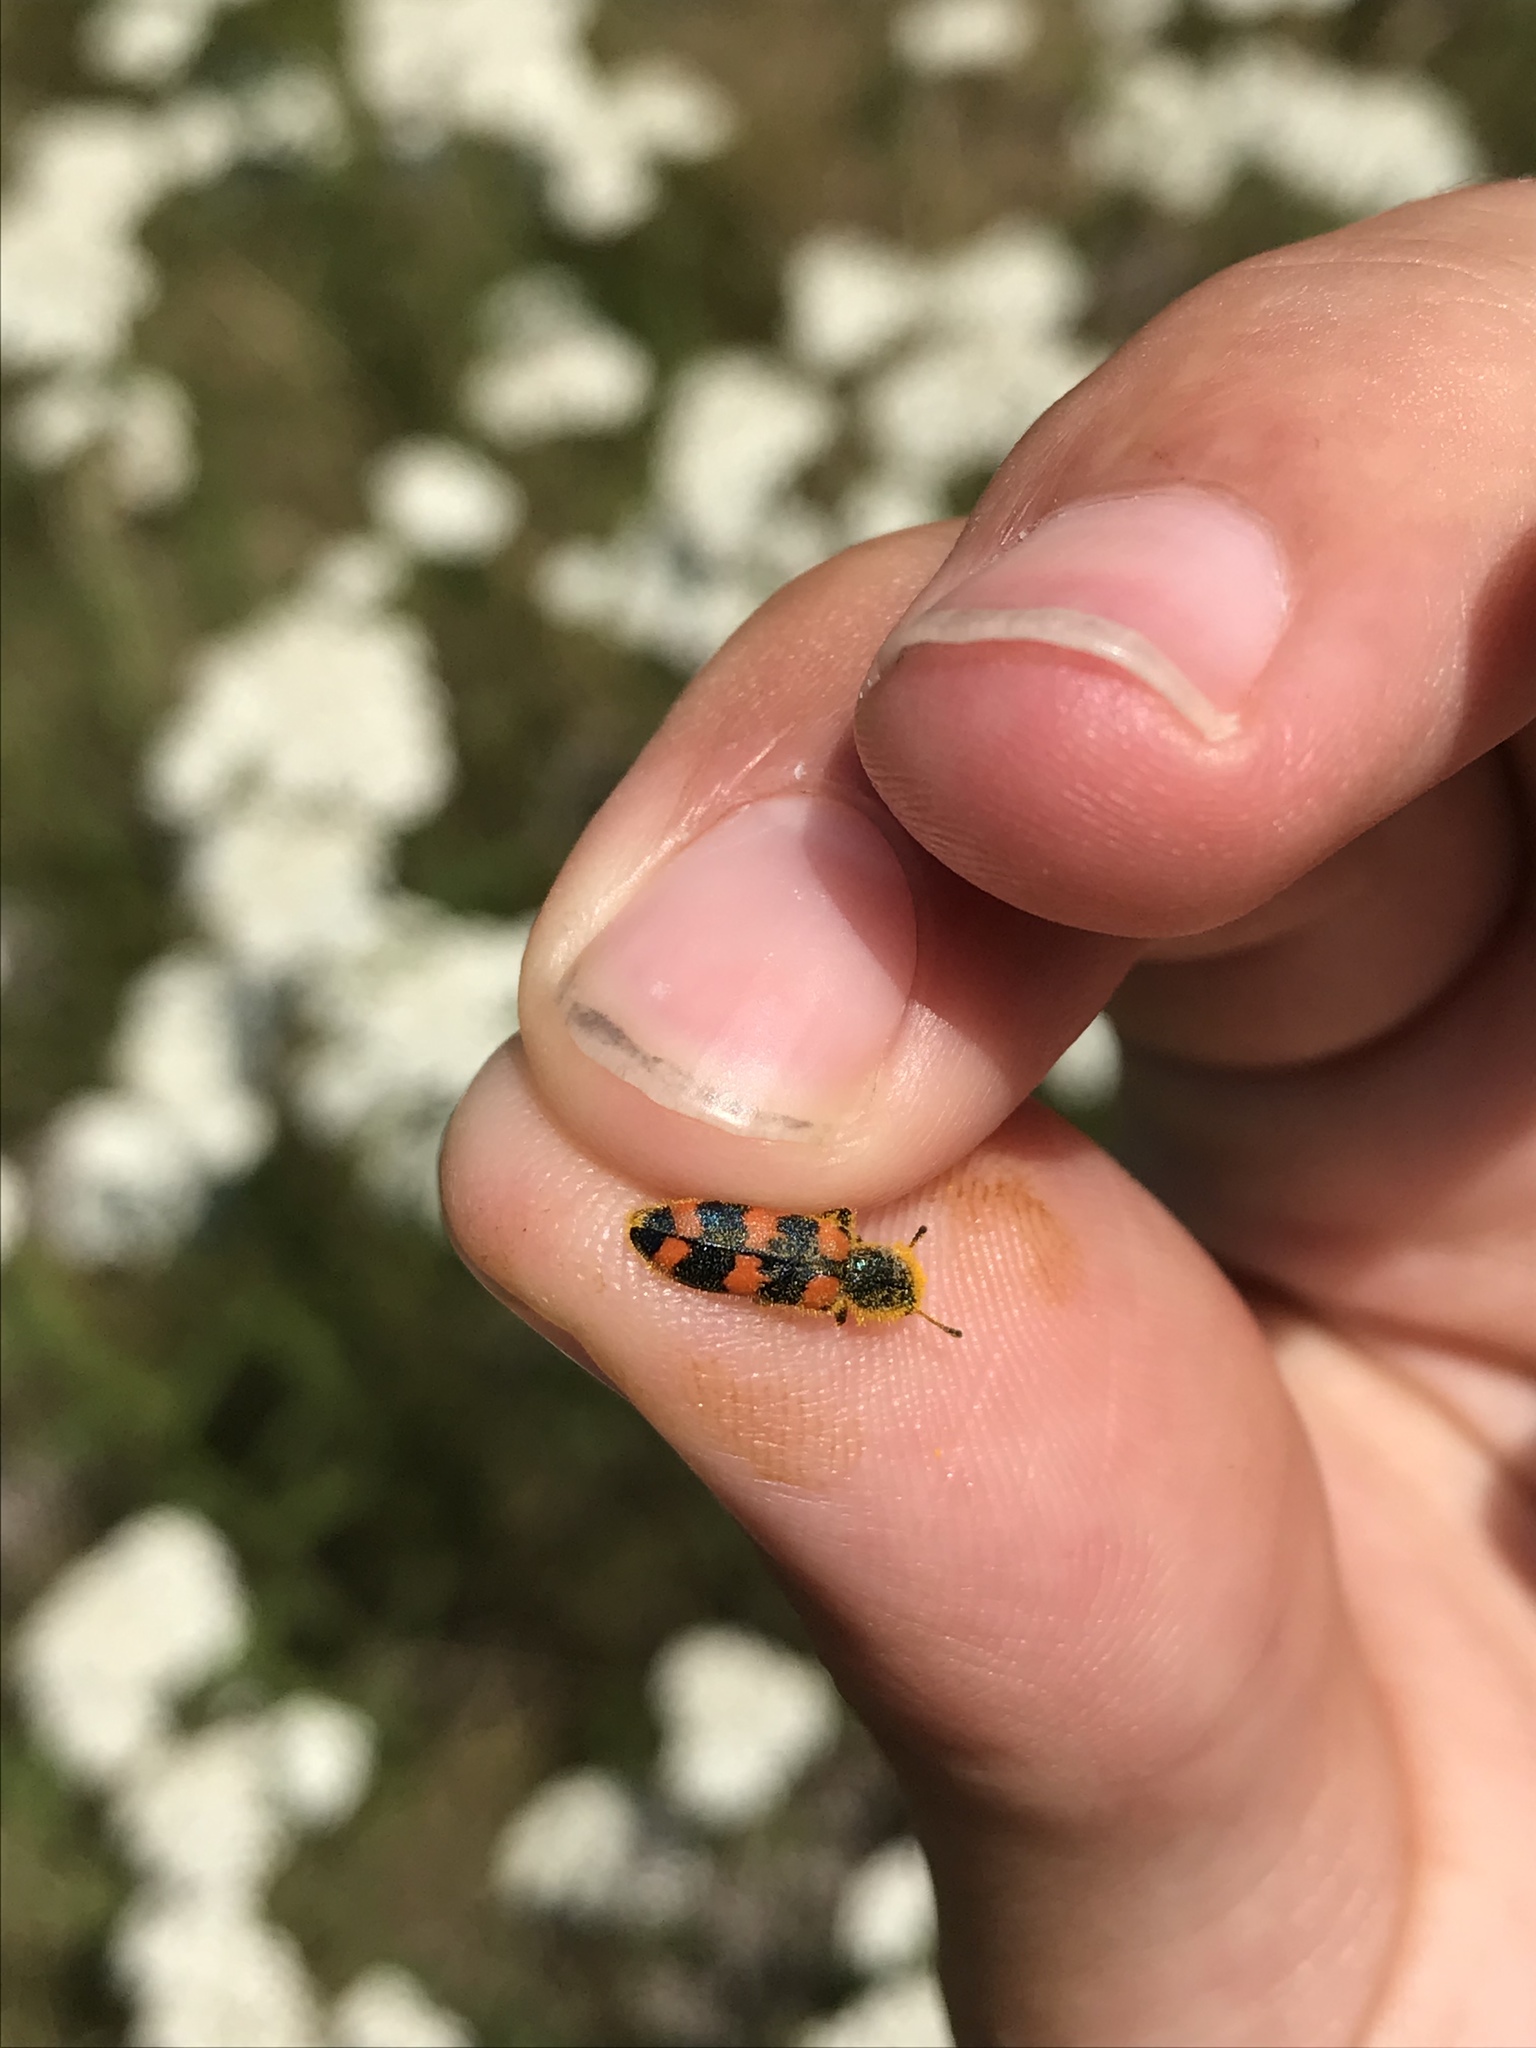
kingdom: Animalia
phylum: Arthropoda
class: Insecta
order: Coleoptera
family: Cleridae
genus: Trichodes
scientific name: Trichodes nutalli
